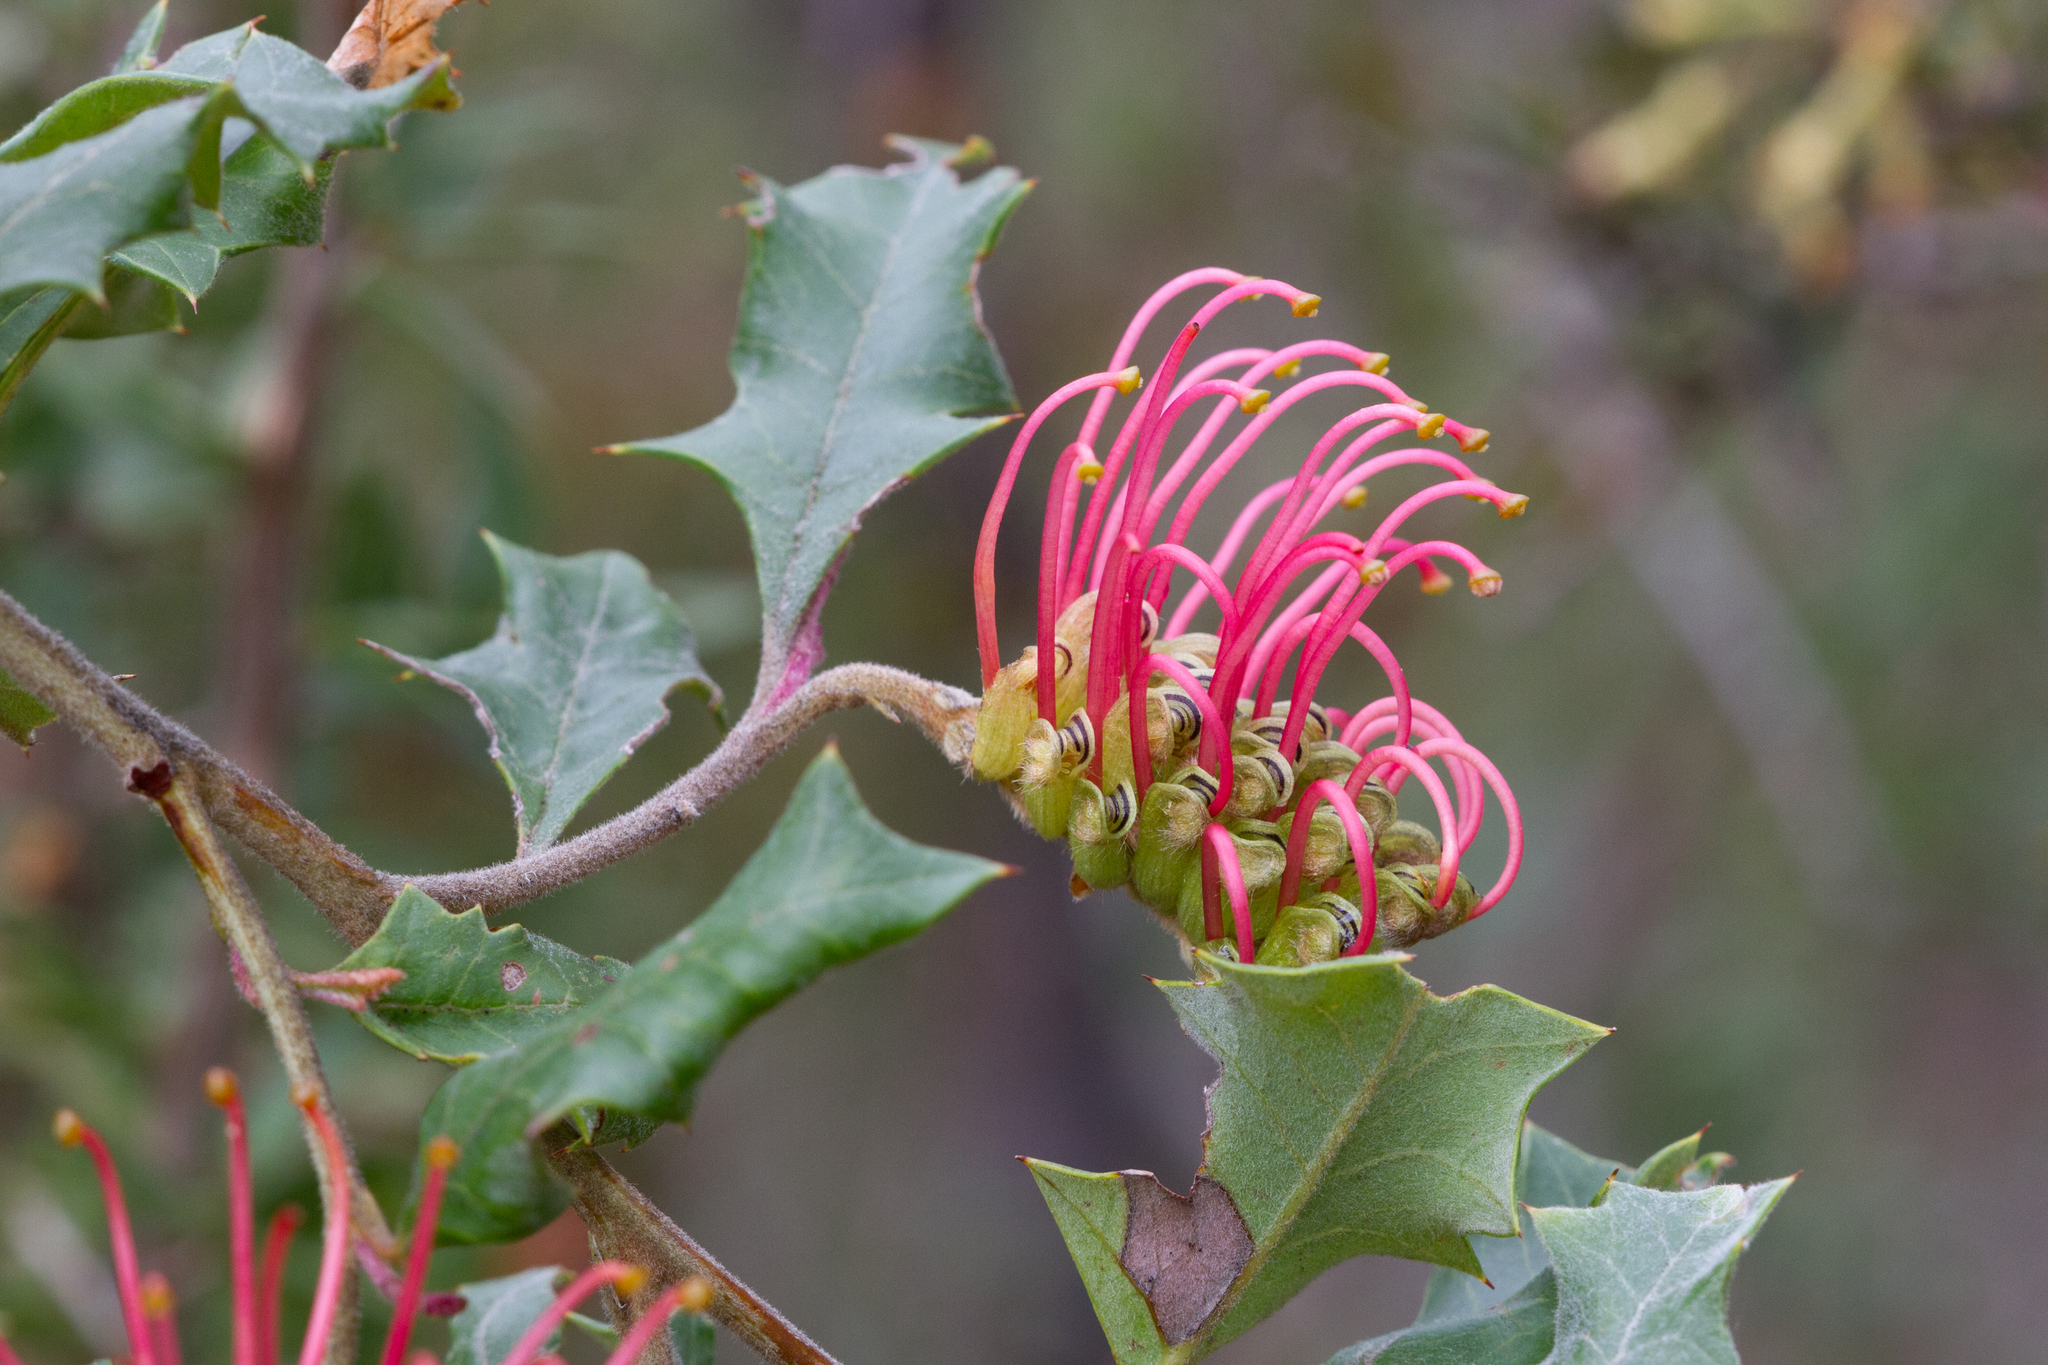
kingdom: Plantae
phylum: Tracheophyta
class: Magnoliopsida
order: Proteales
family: Proteaceae
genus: Grevillea
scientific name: Grevillea aquifolium
